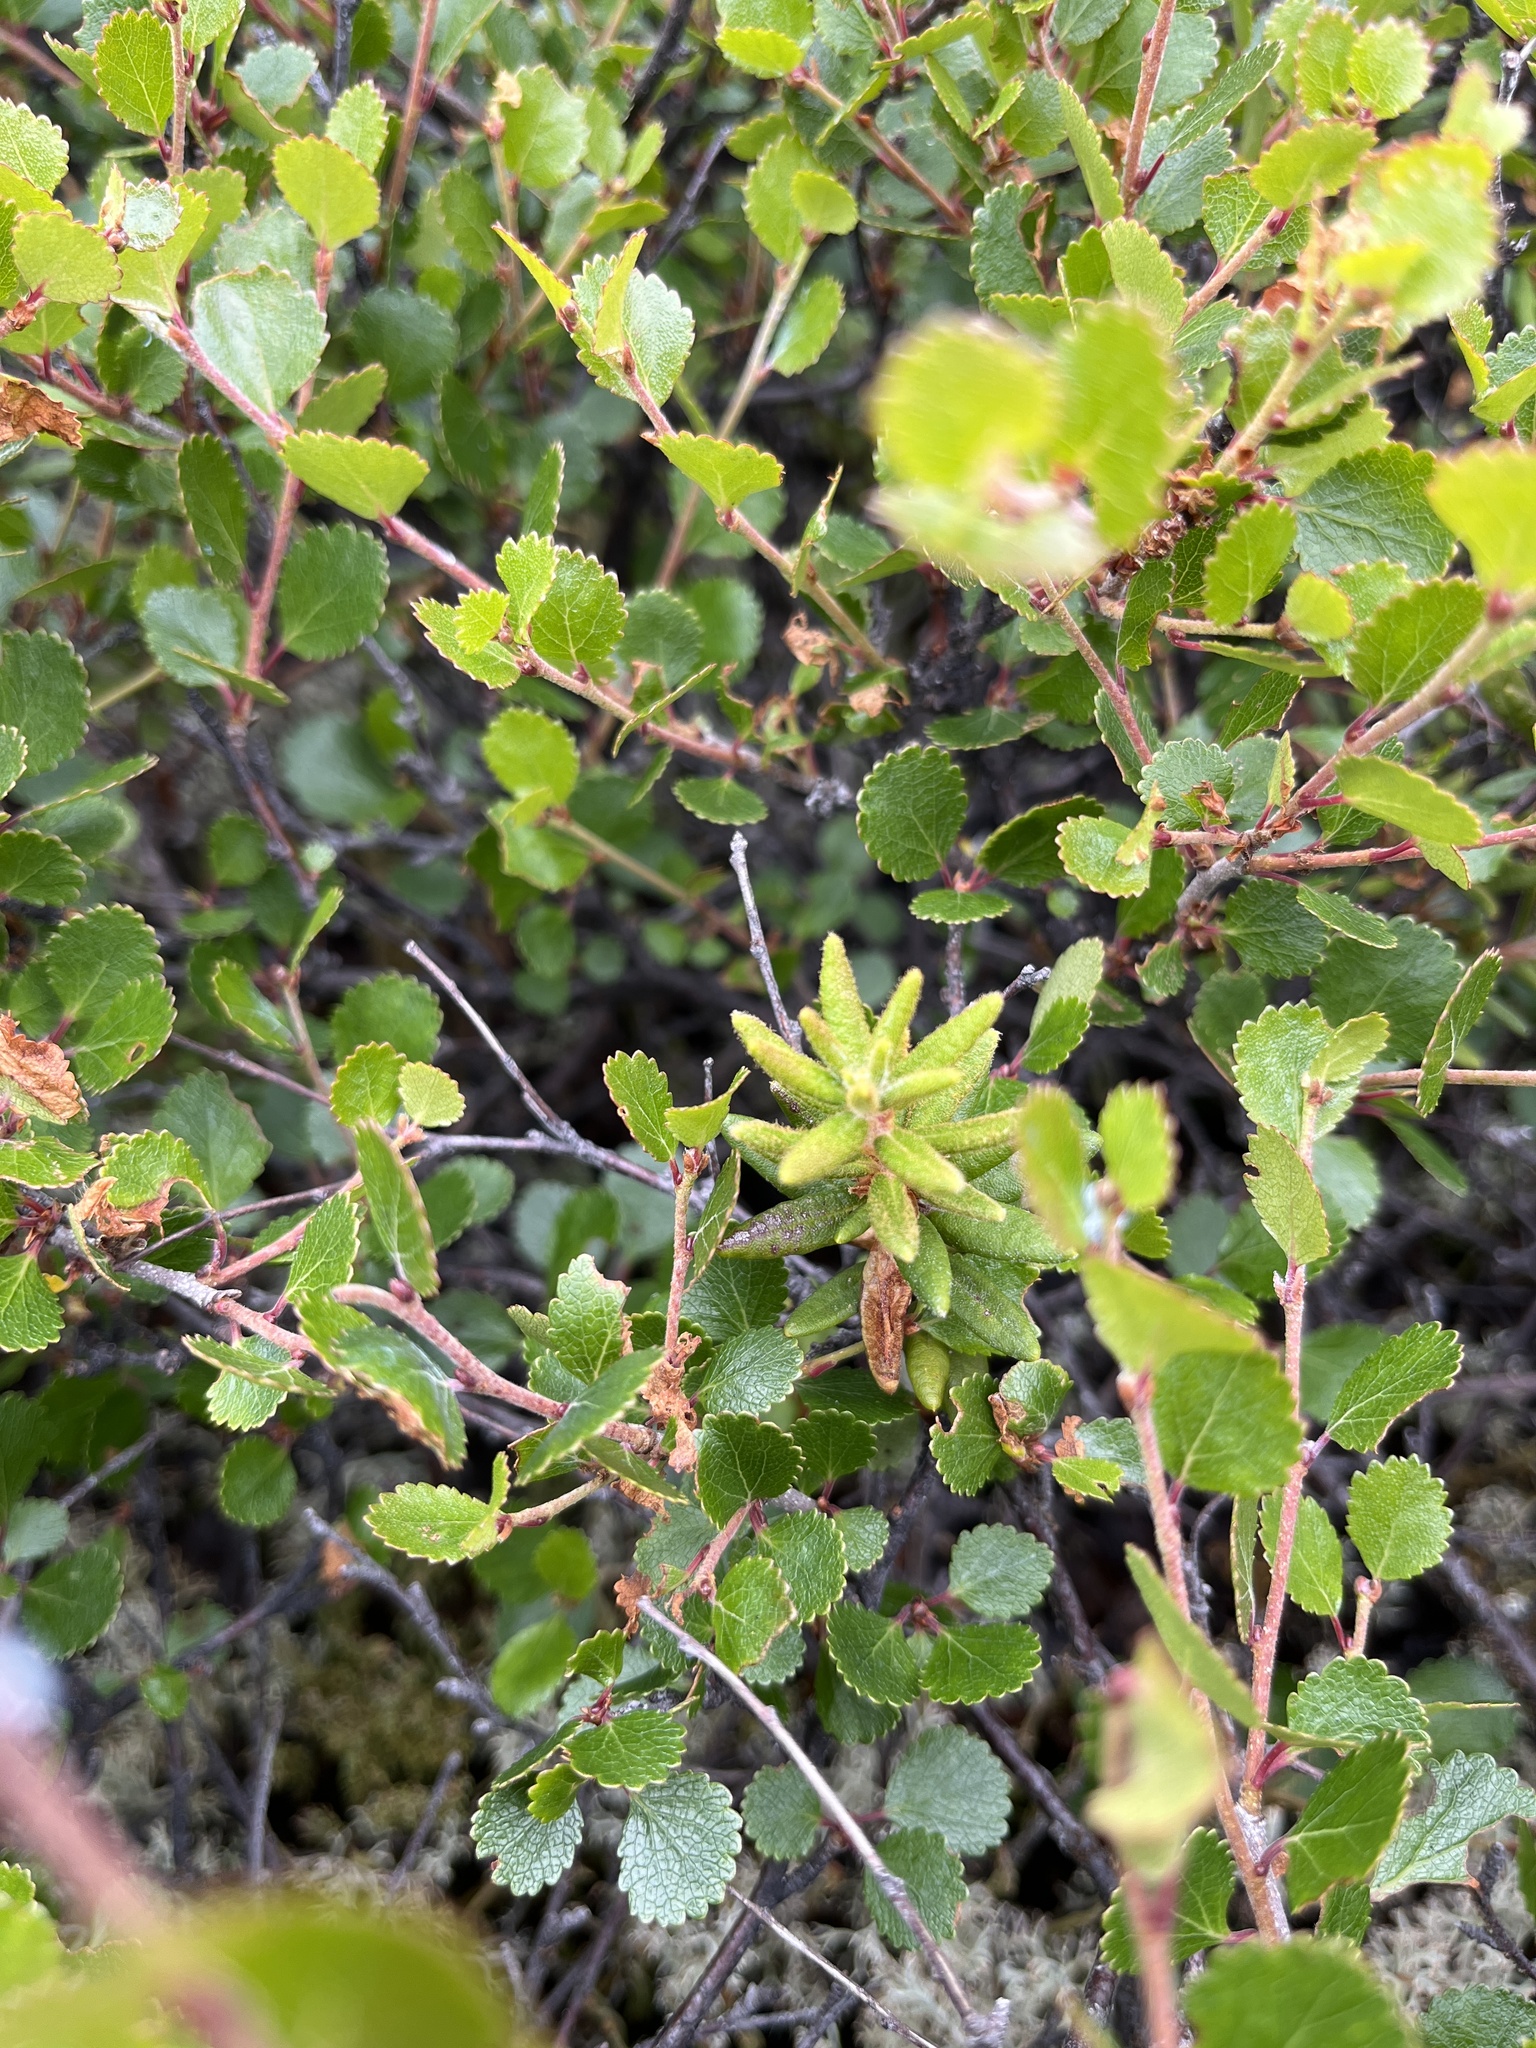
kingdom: Plantae
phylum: Tracheophyta
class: Magnoliopsida
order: Ericales
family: Ericaceae
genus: Rhododendron
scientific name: Rhododendron groenlandicum
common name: Bog labrador tea
